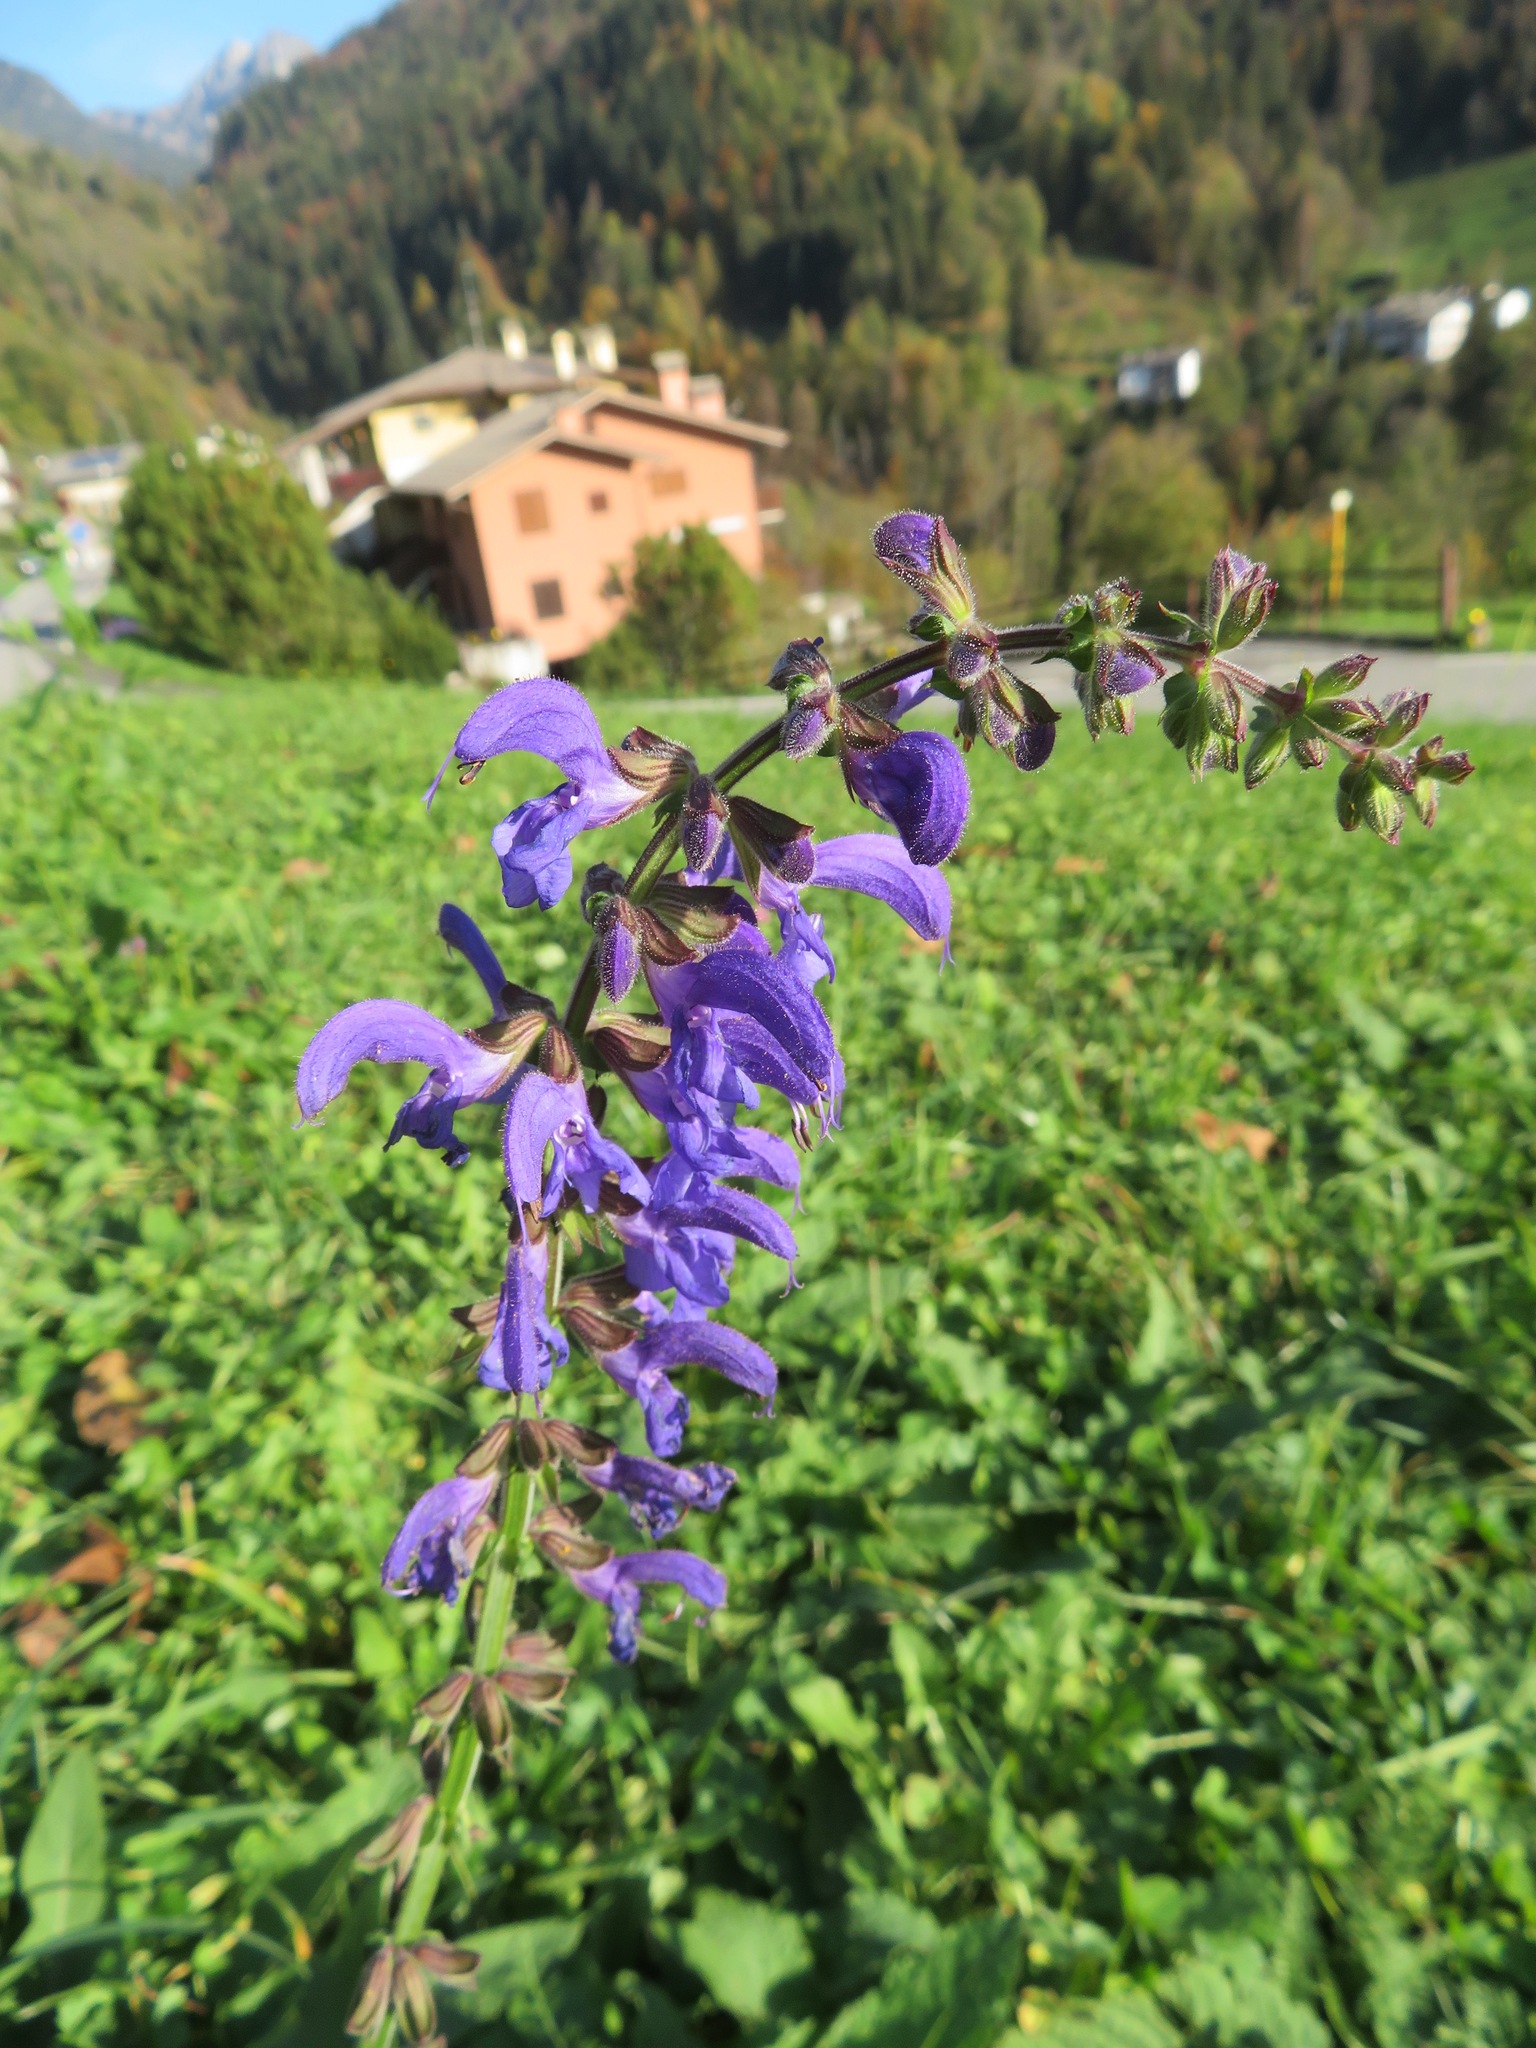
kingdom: Plantae
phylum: Tracheophyta
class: Magnoliopsida
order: Lamiales
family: Lamiaceae
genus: Salvia
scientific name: Salvia pratensis
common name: Meadow sage
